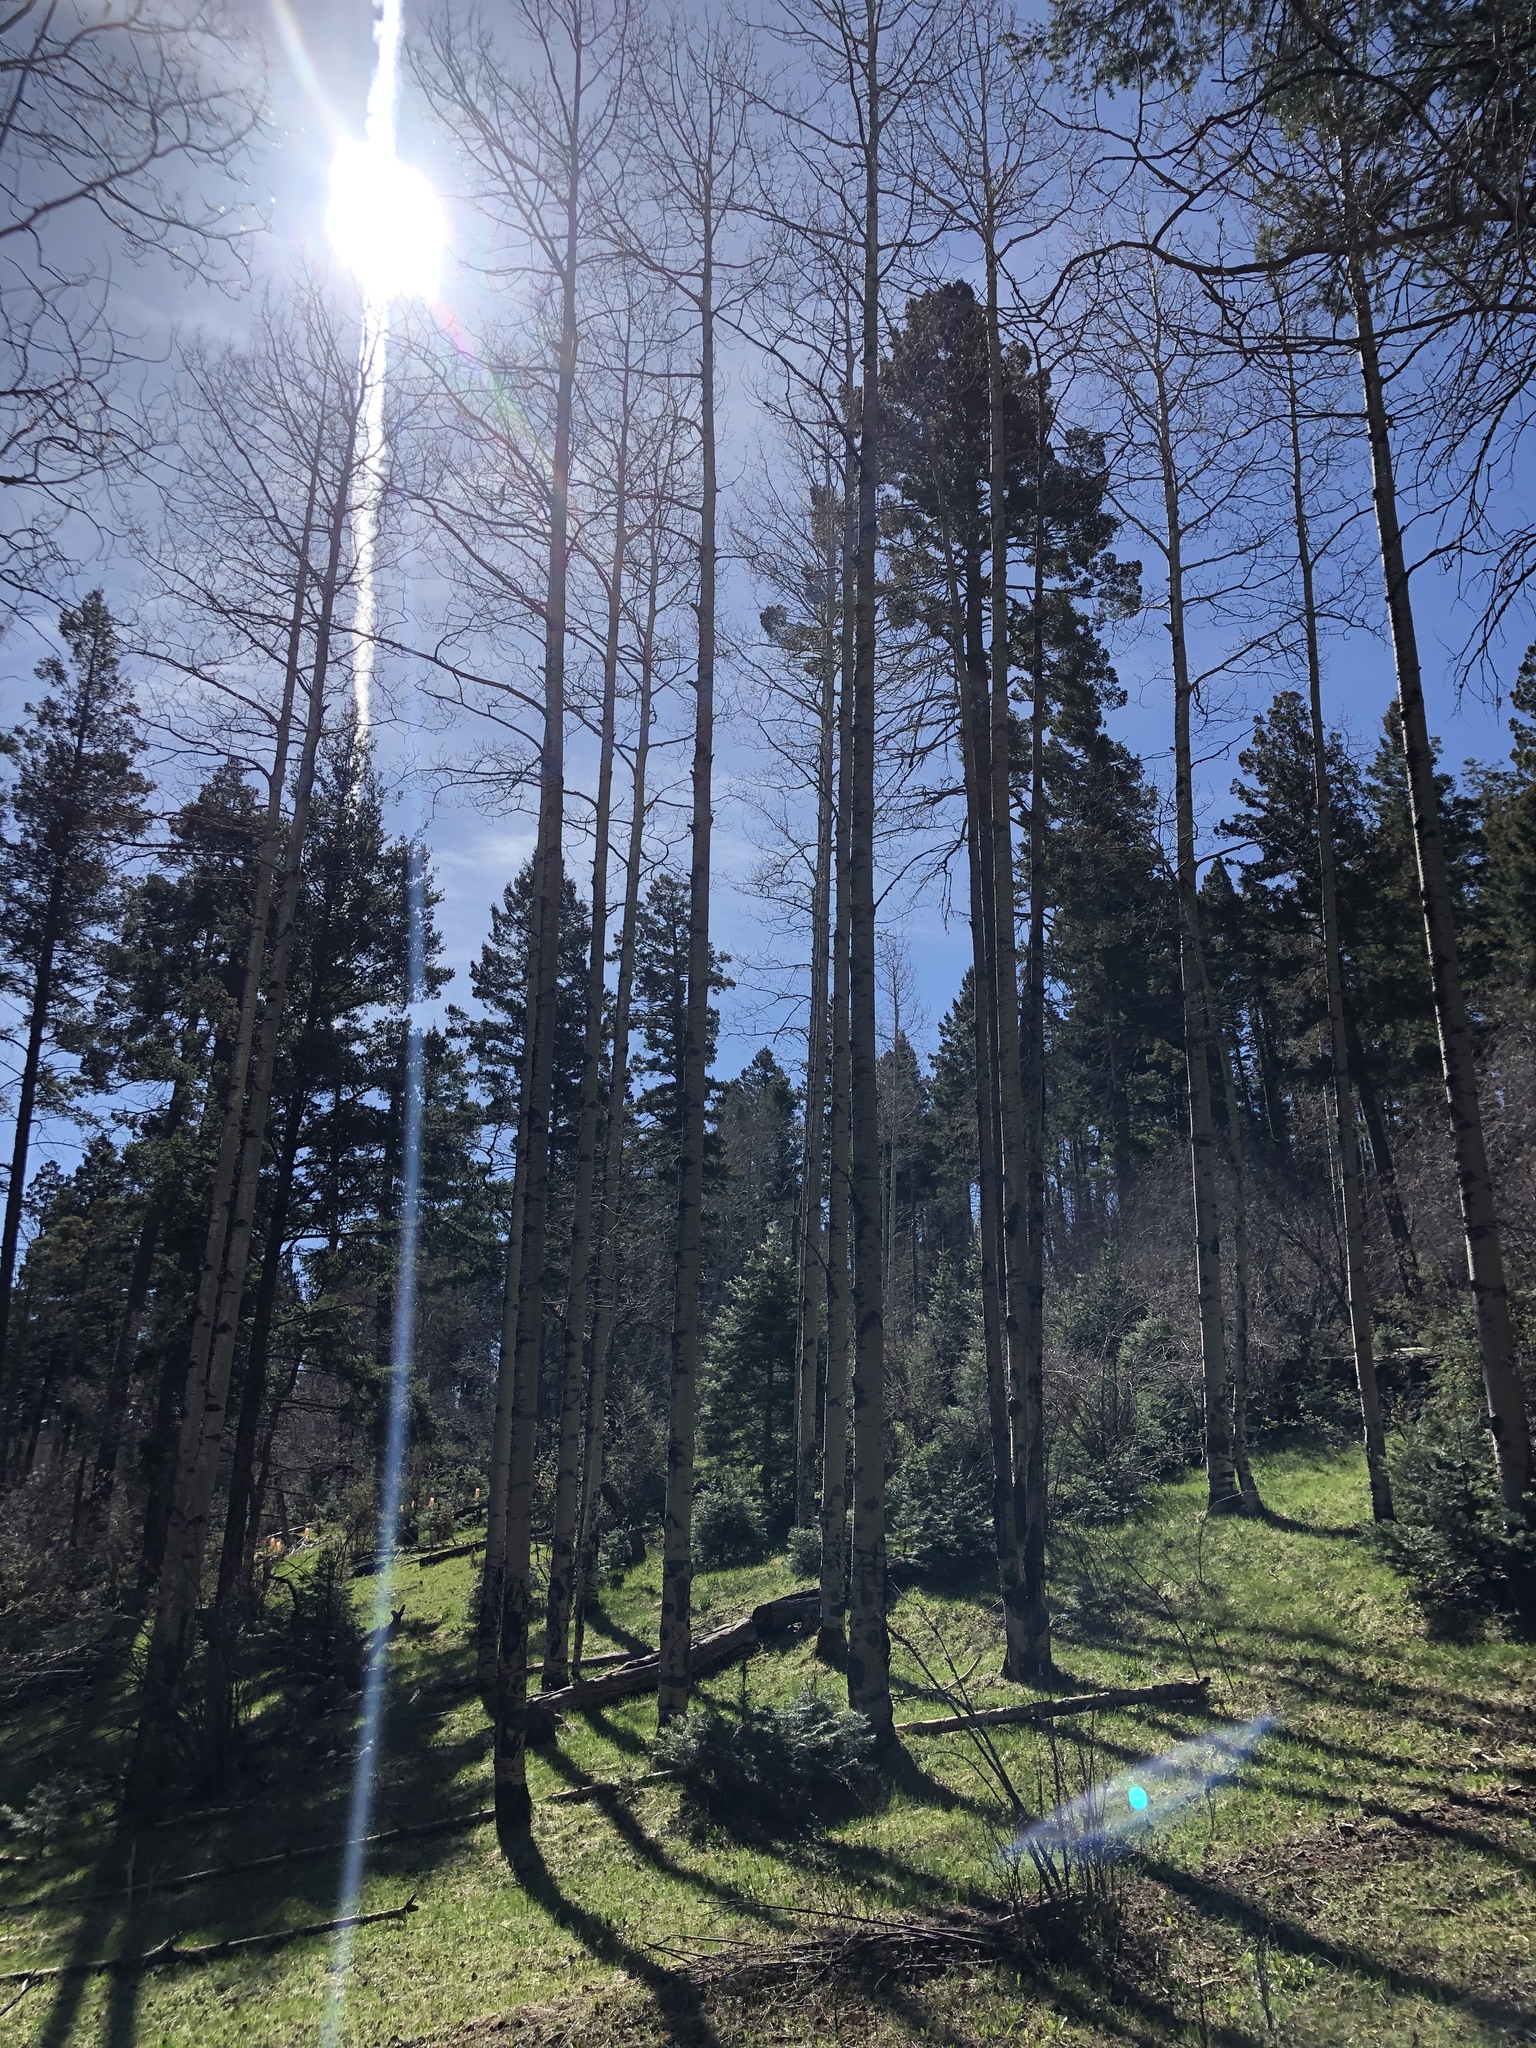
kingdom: Plantae
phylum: Tracheophyta
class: Magnoliopsida
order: Malpighiales
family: Salicaceae
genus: Populus
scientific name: Populus tremuloides
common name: Quaking aspen
